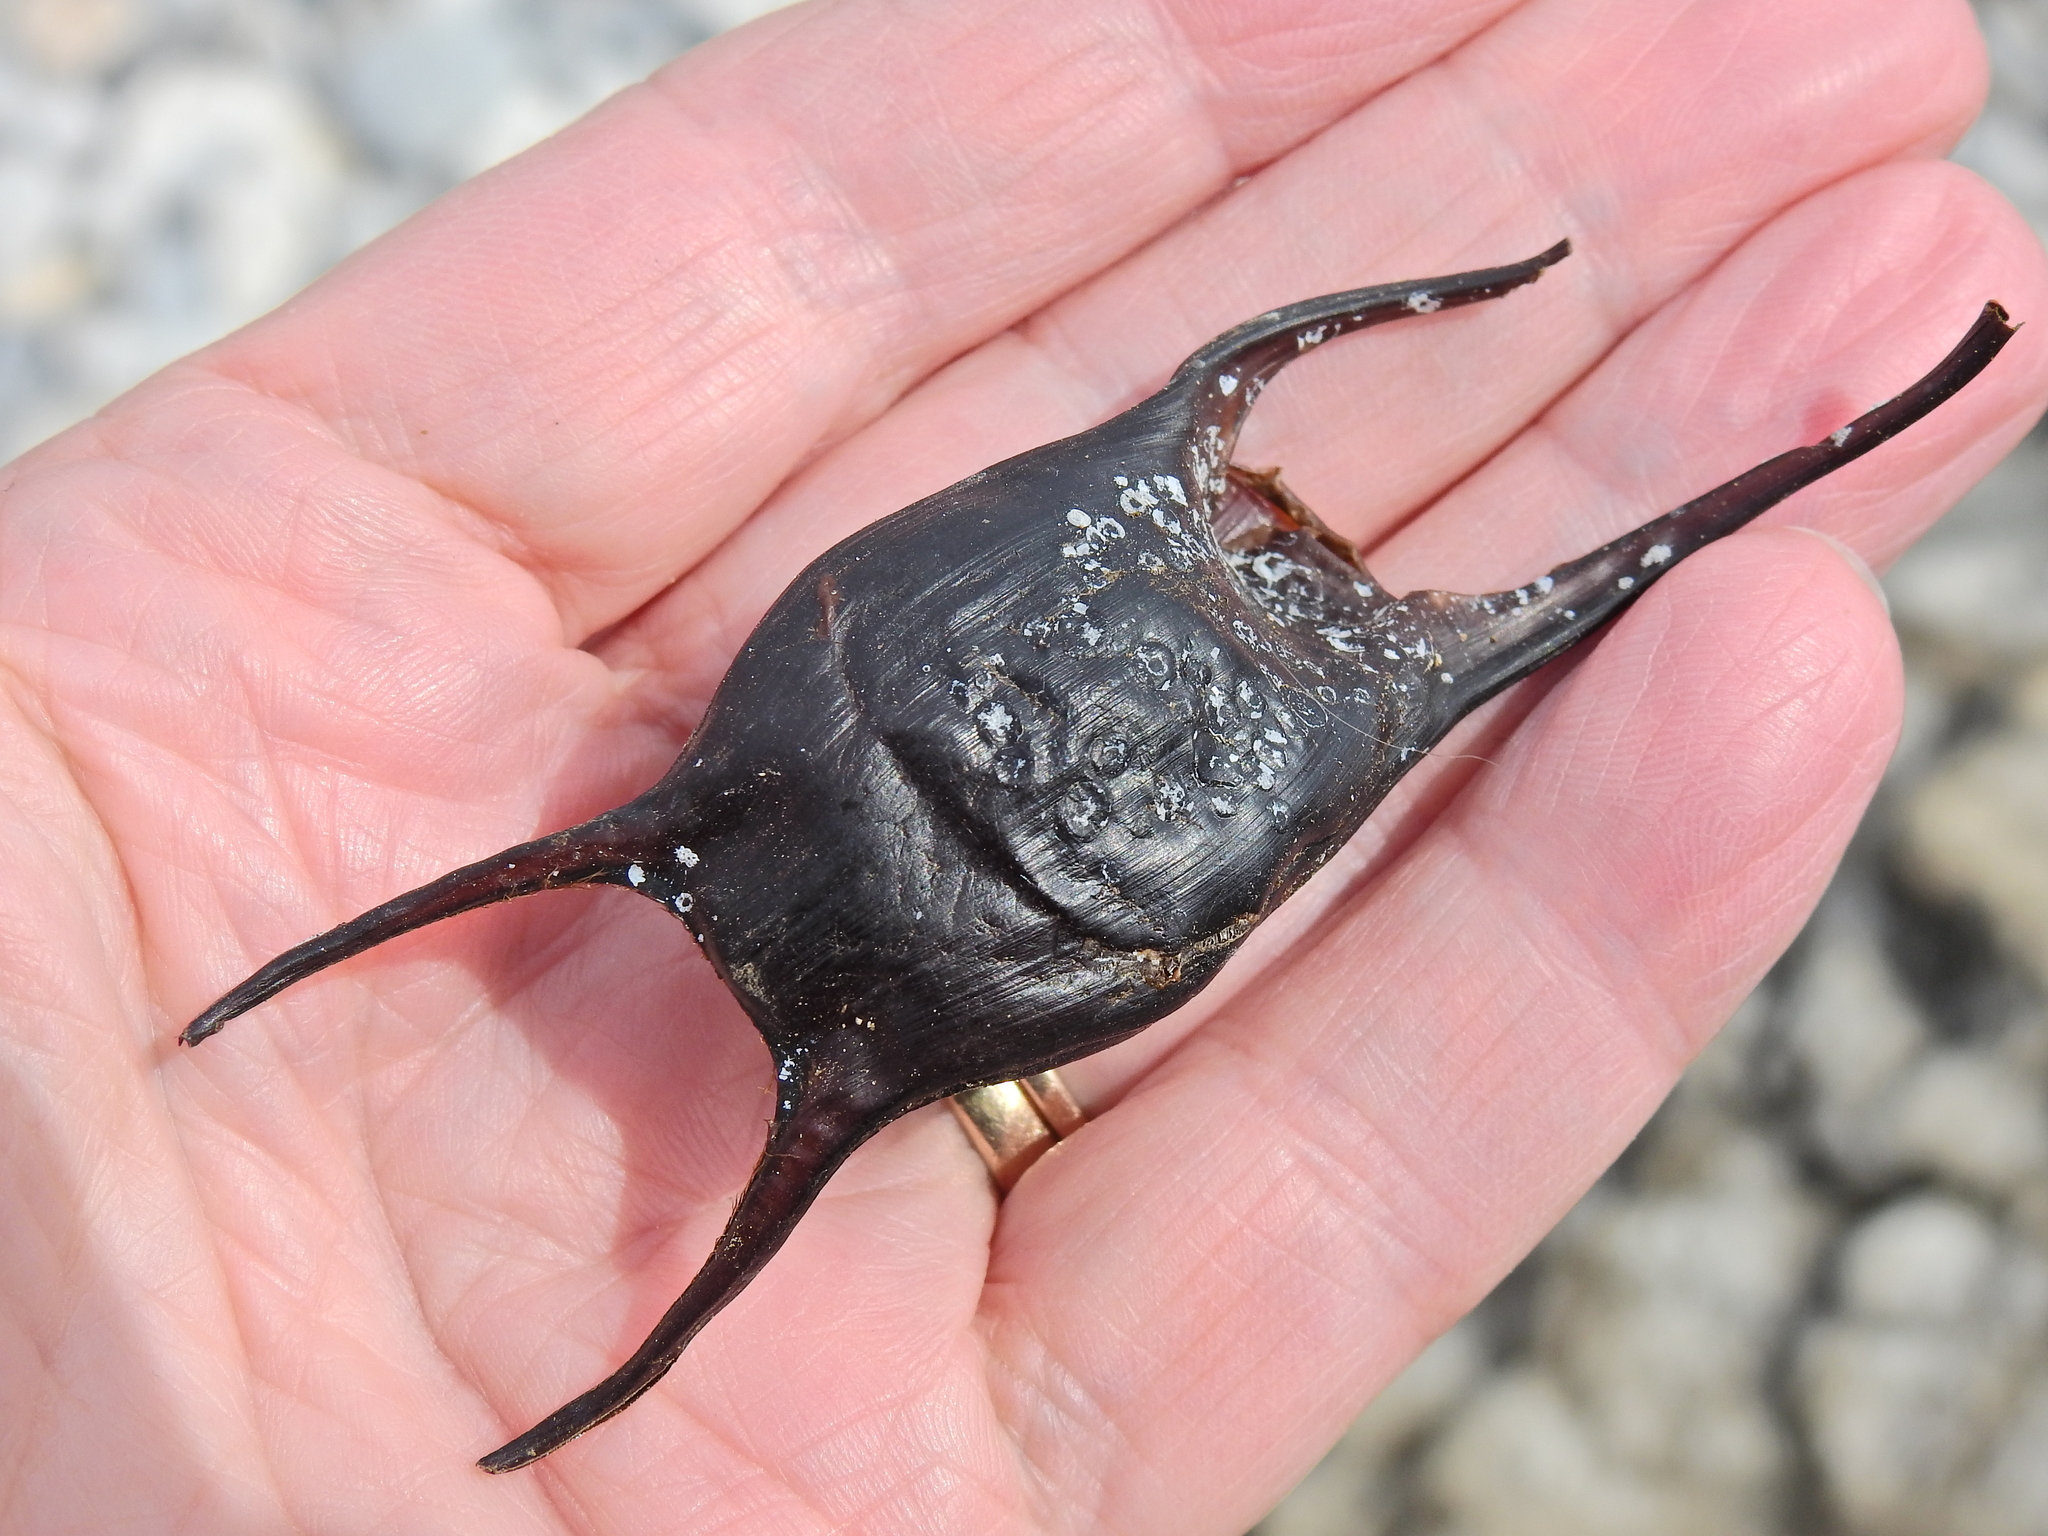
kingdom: Animalia
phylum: Chordata
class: Elasmobranchii
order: Rajiformes
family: Rajidae
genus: Raja
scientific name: Raja montagui
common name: Spotted ray
